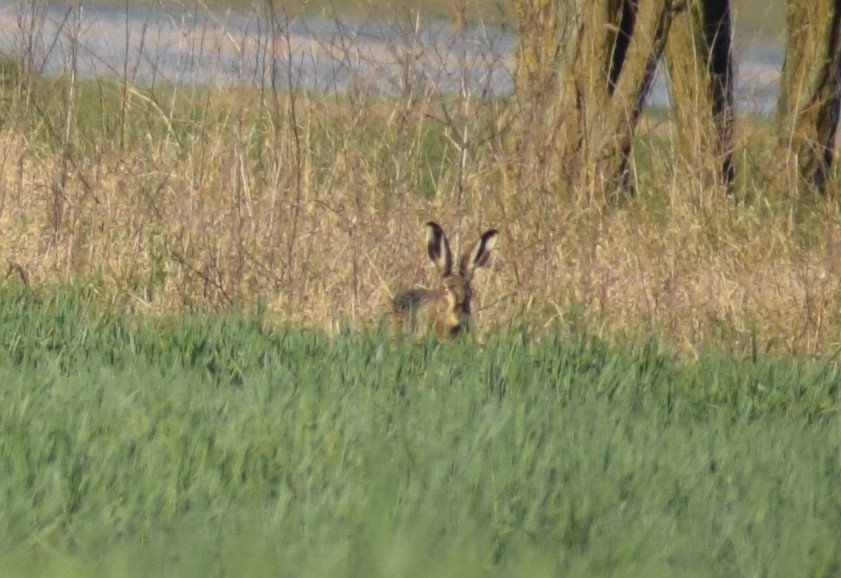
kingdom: Animalia
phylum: Chordata
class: Mammalia
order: Lagomorpha
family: Leporidae
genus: Lepus
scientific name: Lepus europaeus
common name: European hare
